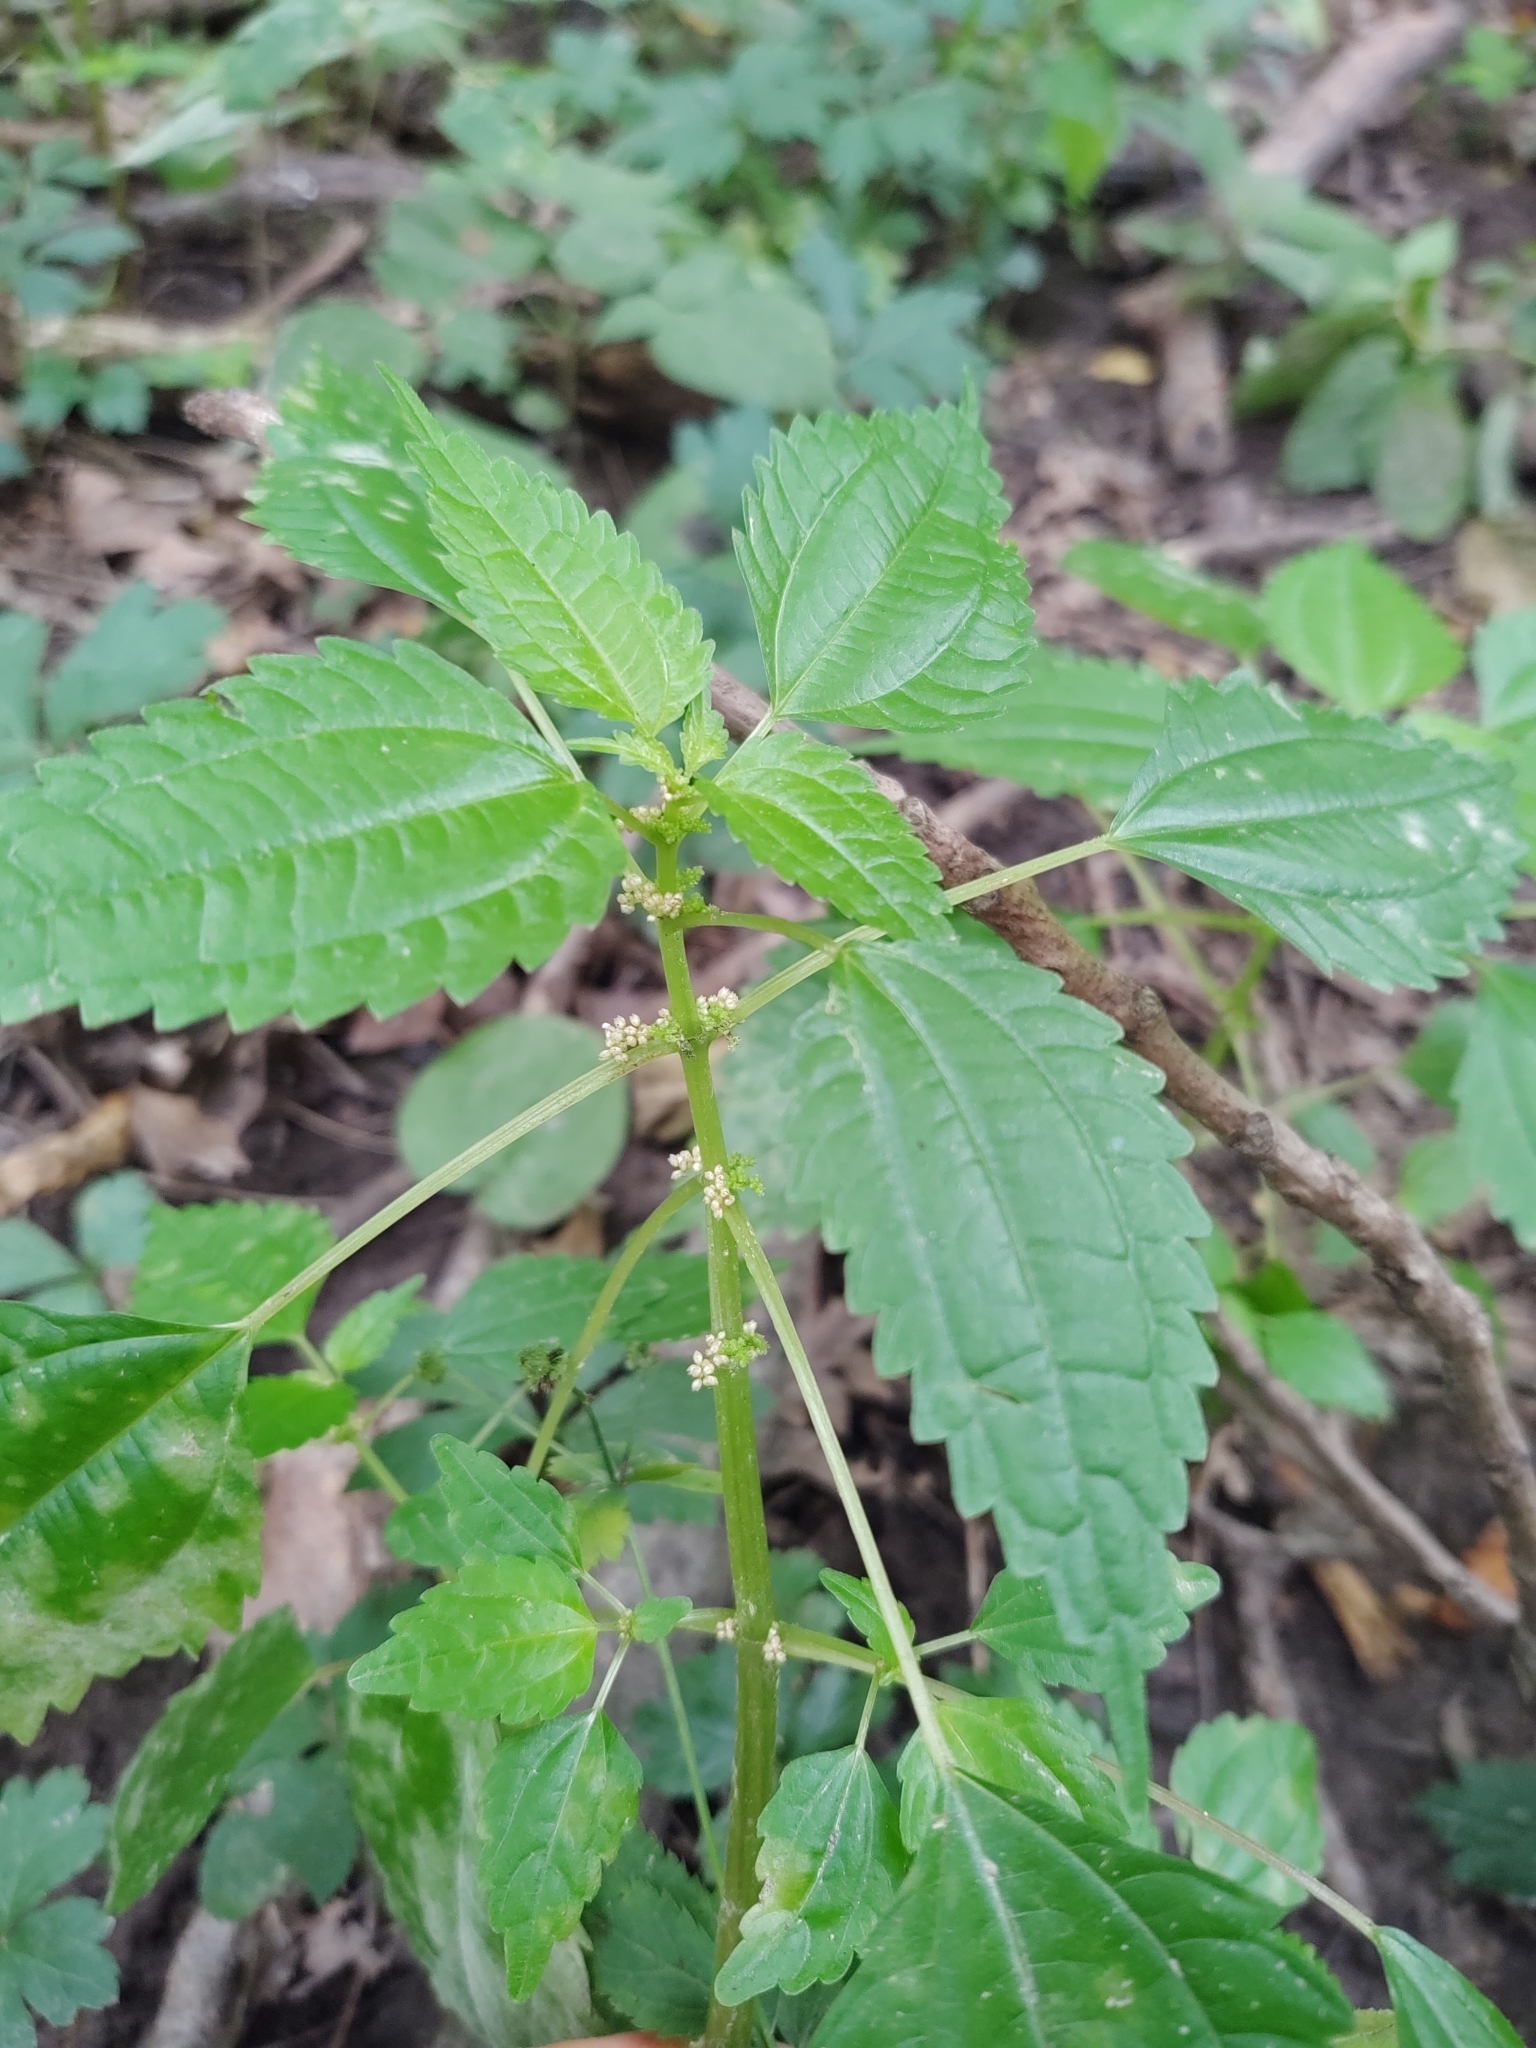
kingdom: Plantae
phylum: Tracheophyta
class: Magnoliopsida
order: Rosales
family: Urticaceae
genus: Pilea
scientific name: Pilea pumila
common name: Clearweed
